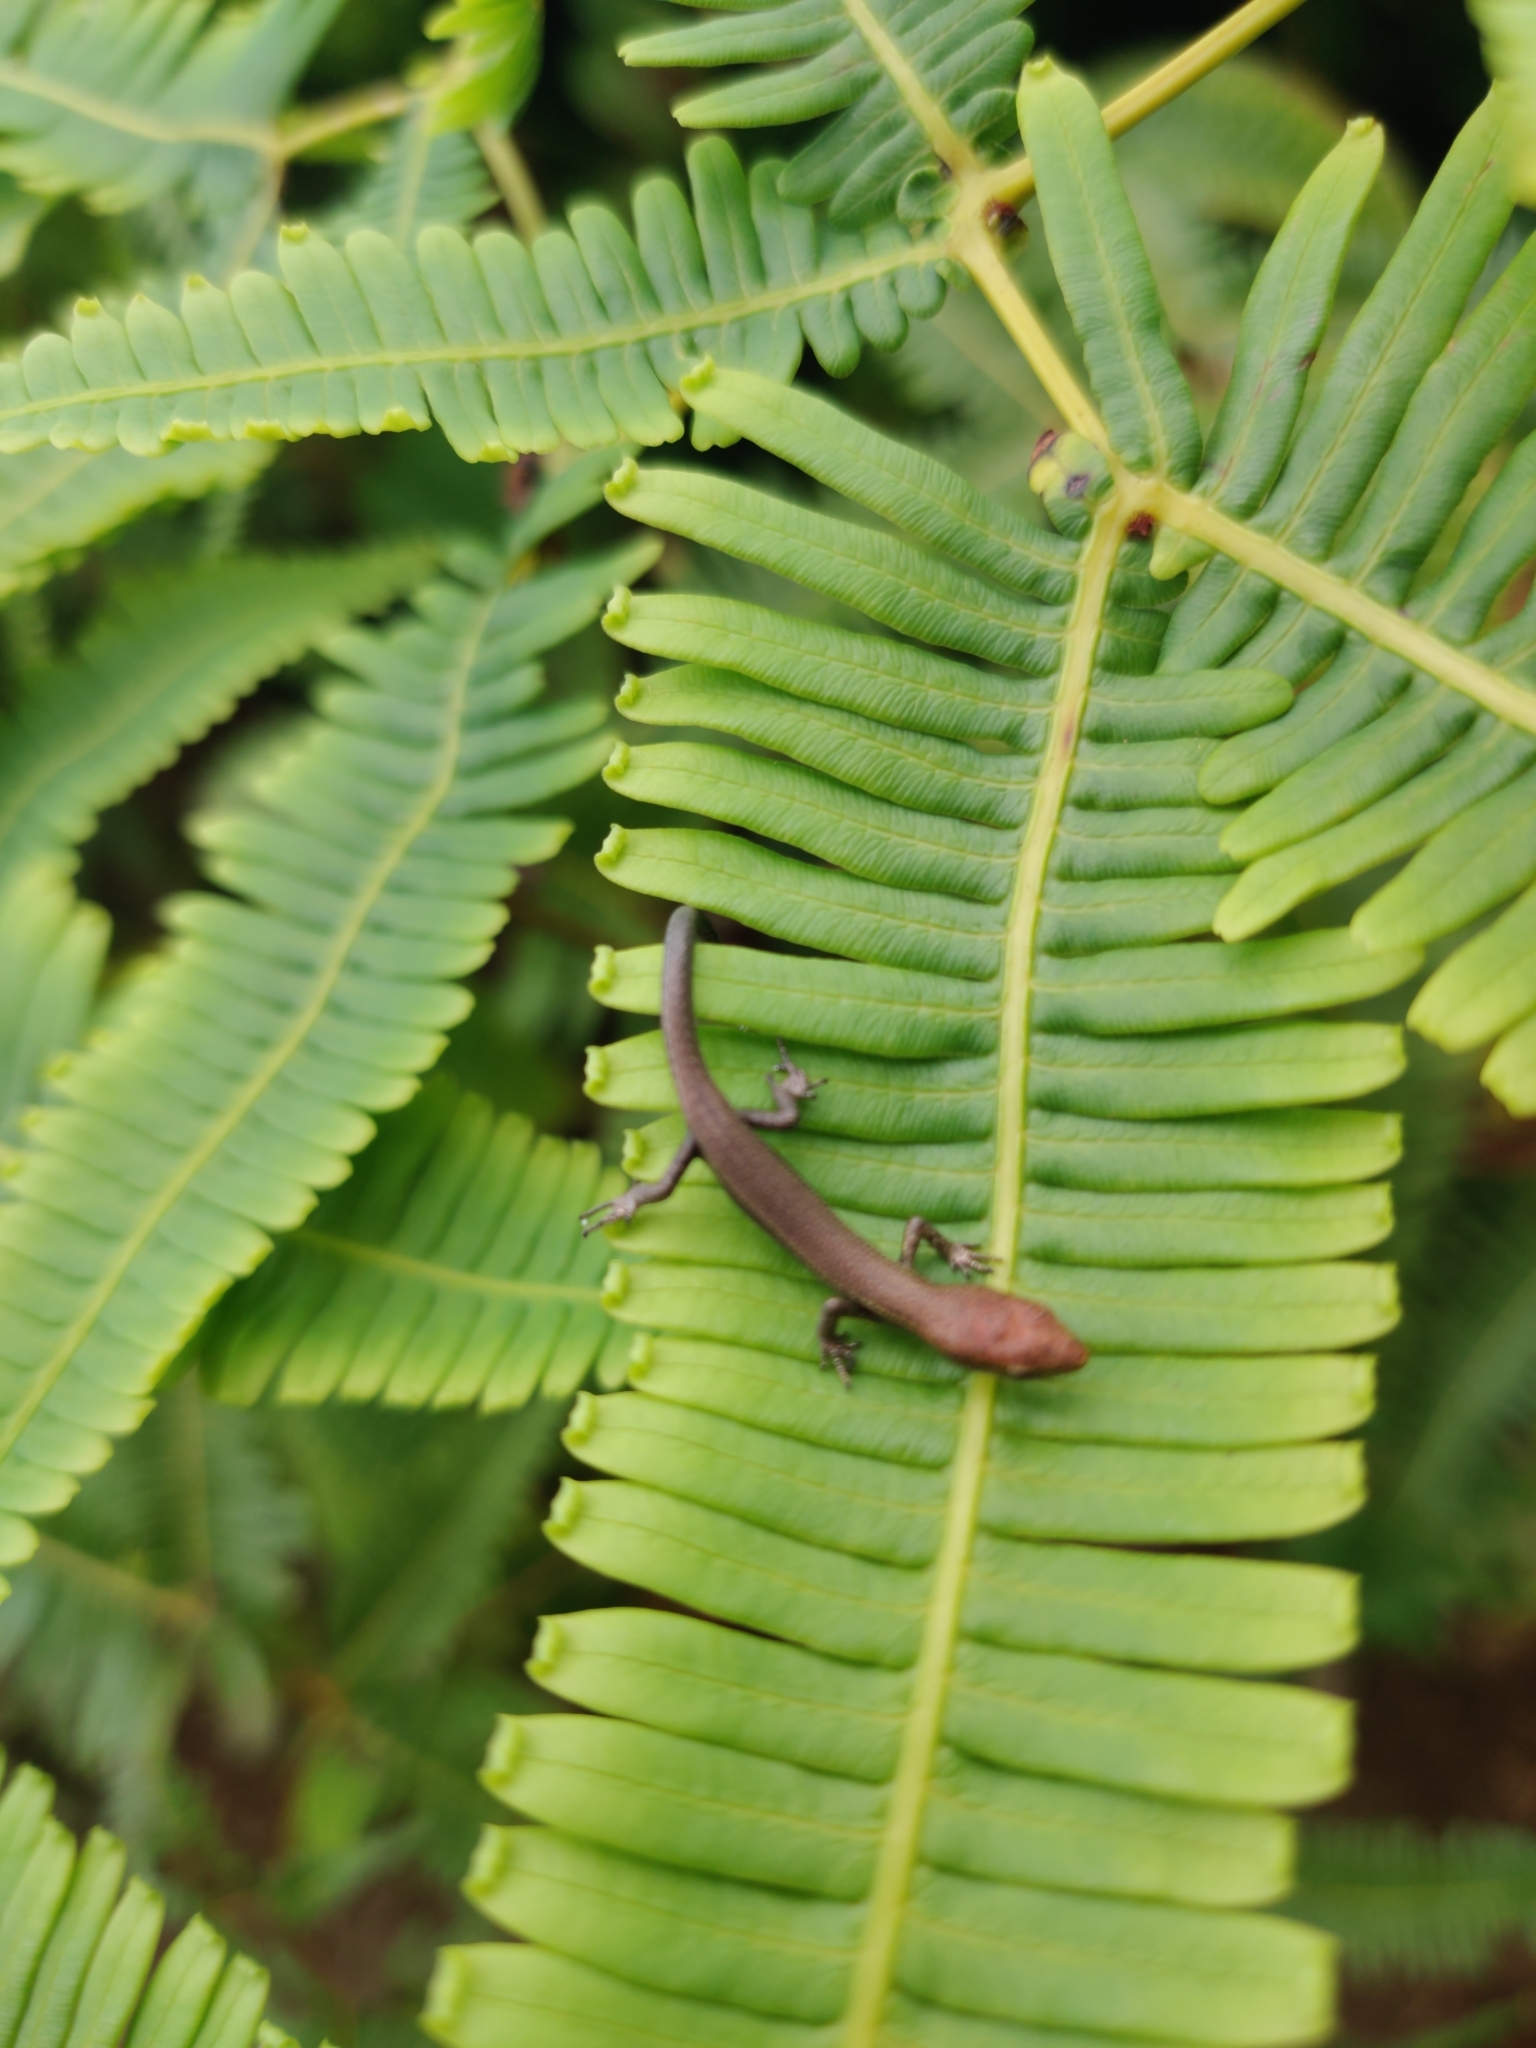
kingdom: Animalia
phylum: Chordata
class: Squamata
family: Scincidae
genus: Lampropholis
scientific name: Lampropholis delicata
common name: Plague skink
